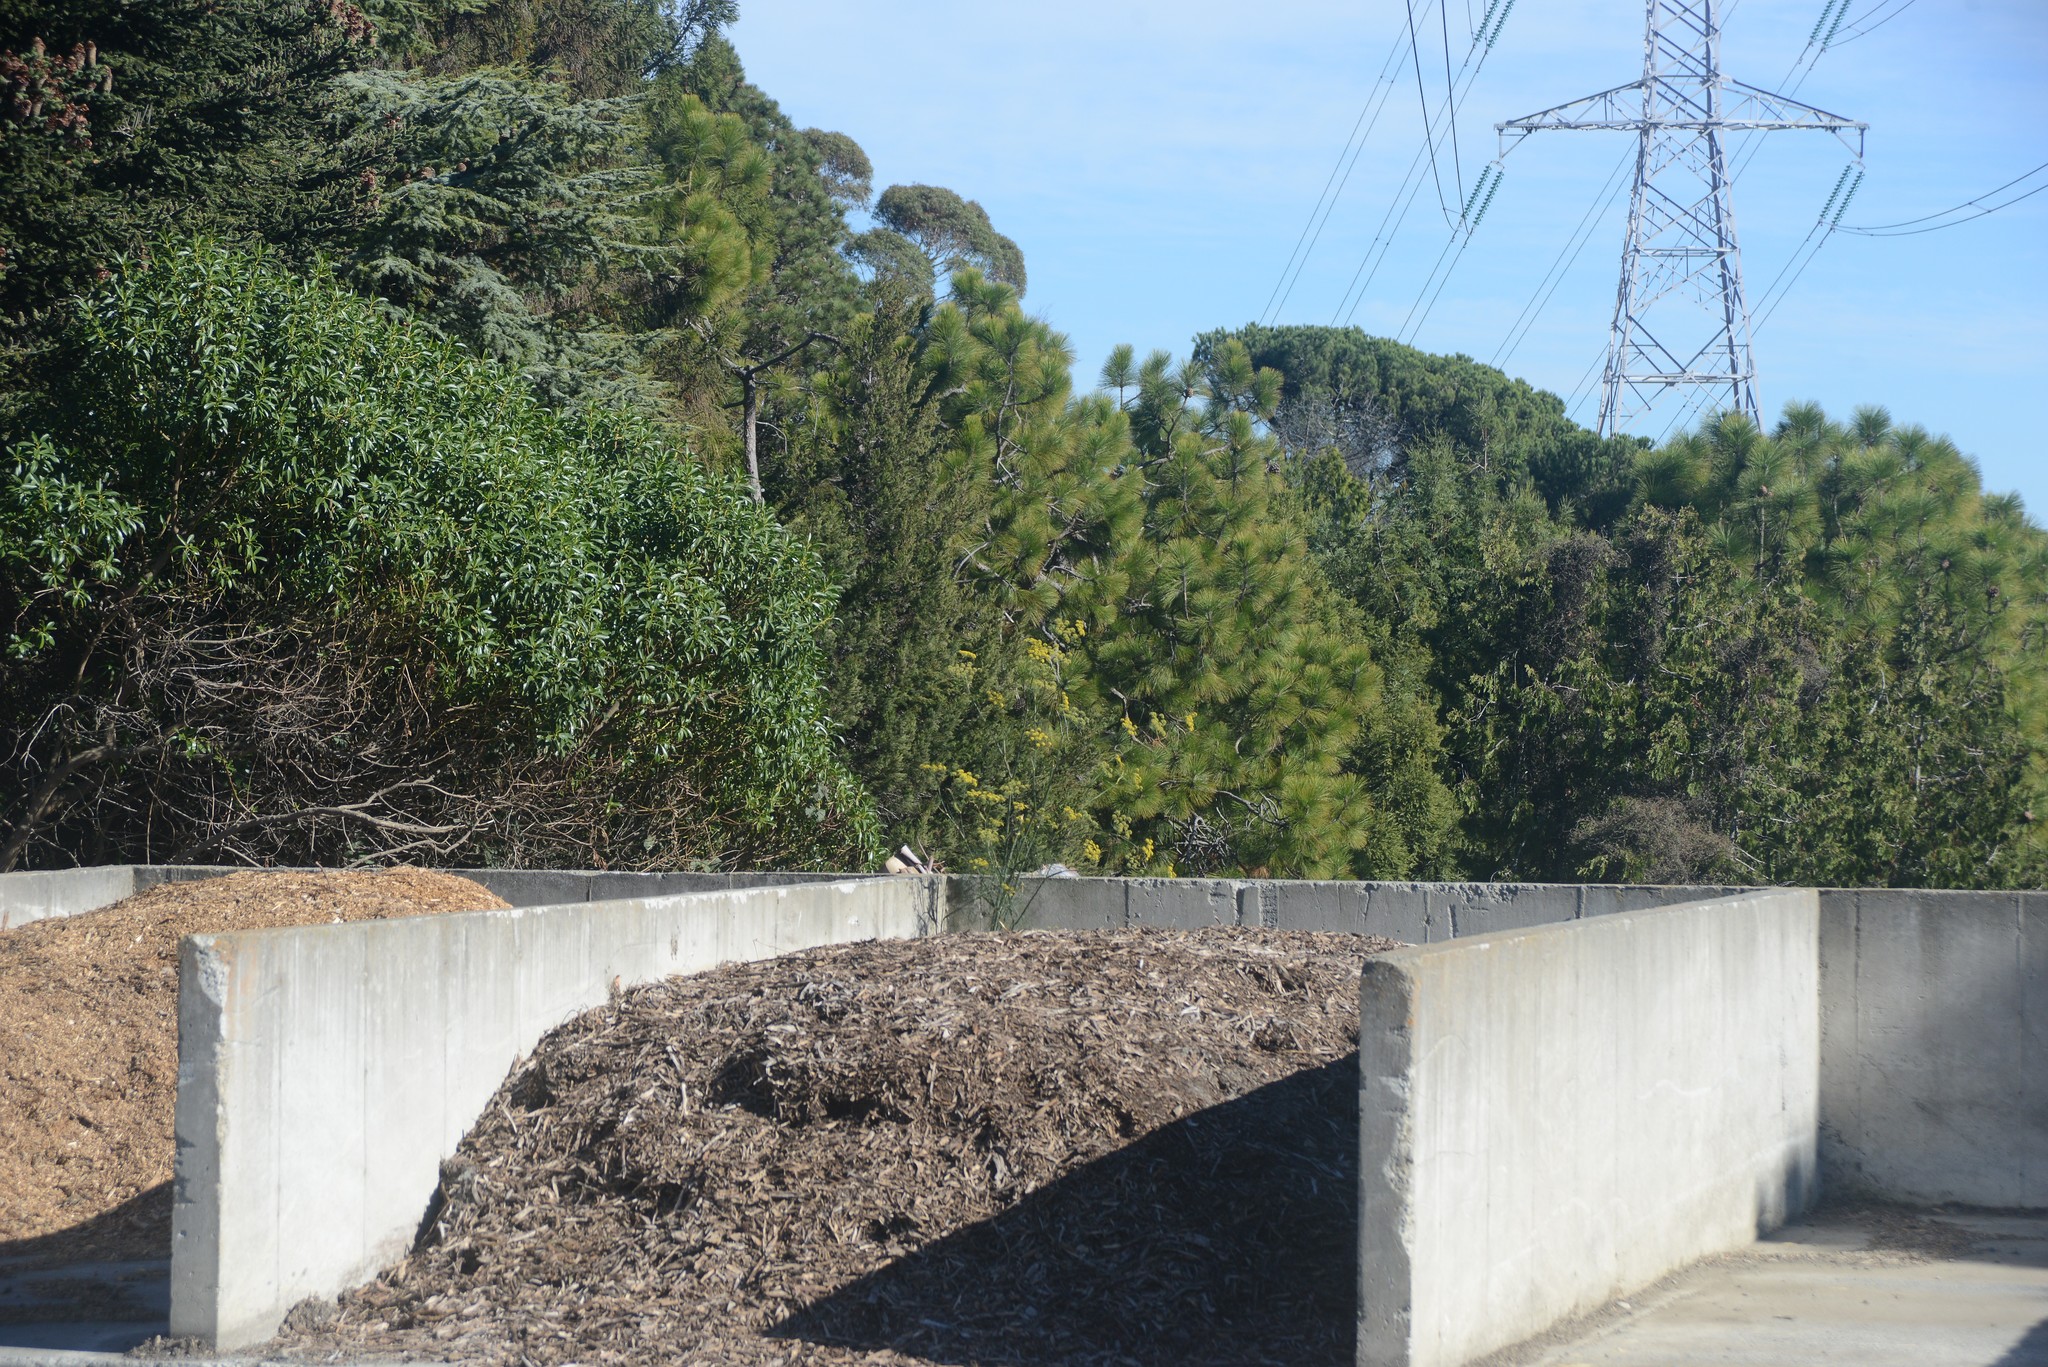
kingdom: Plantae
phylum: Tracheophyta
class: Magnoliopsida
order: Apiales
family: Apiaceae
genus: Foeniculum
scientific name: Foeniculum vulgare
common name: Fennel
